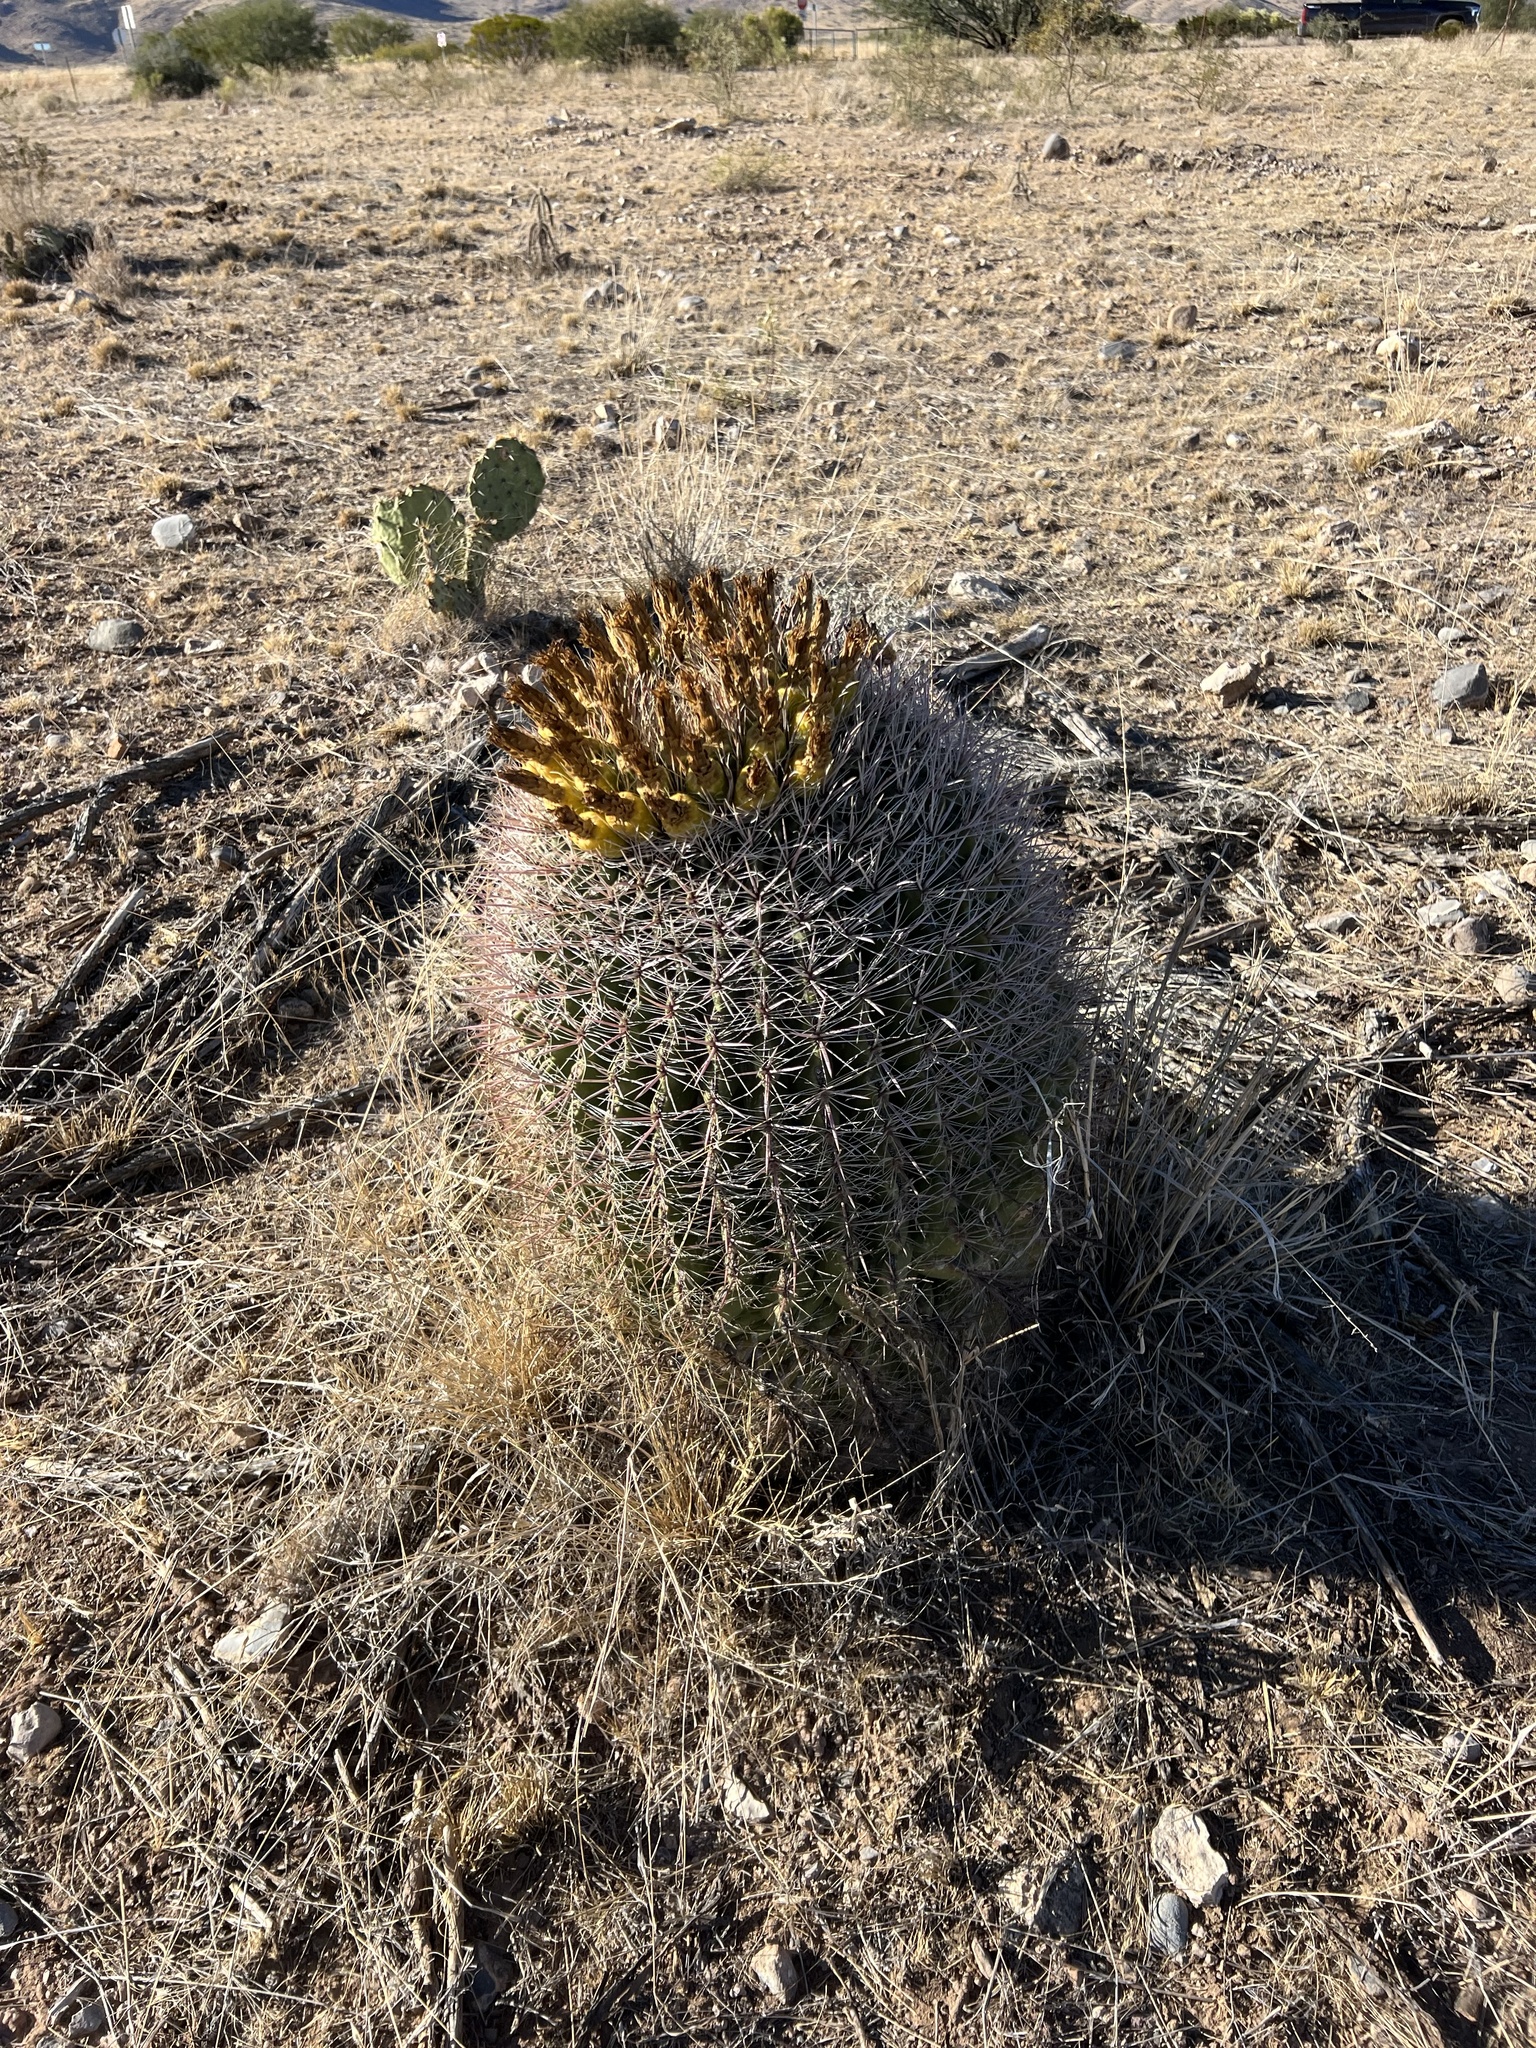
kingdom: Plantae
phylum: Tracheophyta
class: Magnoliopsida
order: Caryophyllales
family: Cactaceae
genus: Ferocactus
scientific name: Ferocactus wislizeni
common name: Candy barrel cactus
